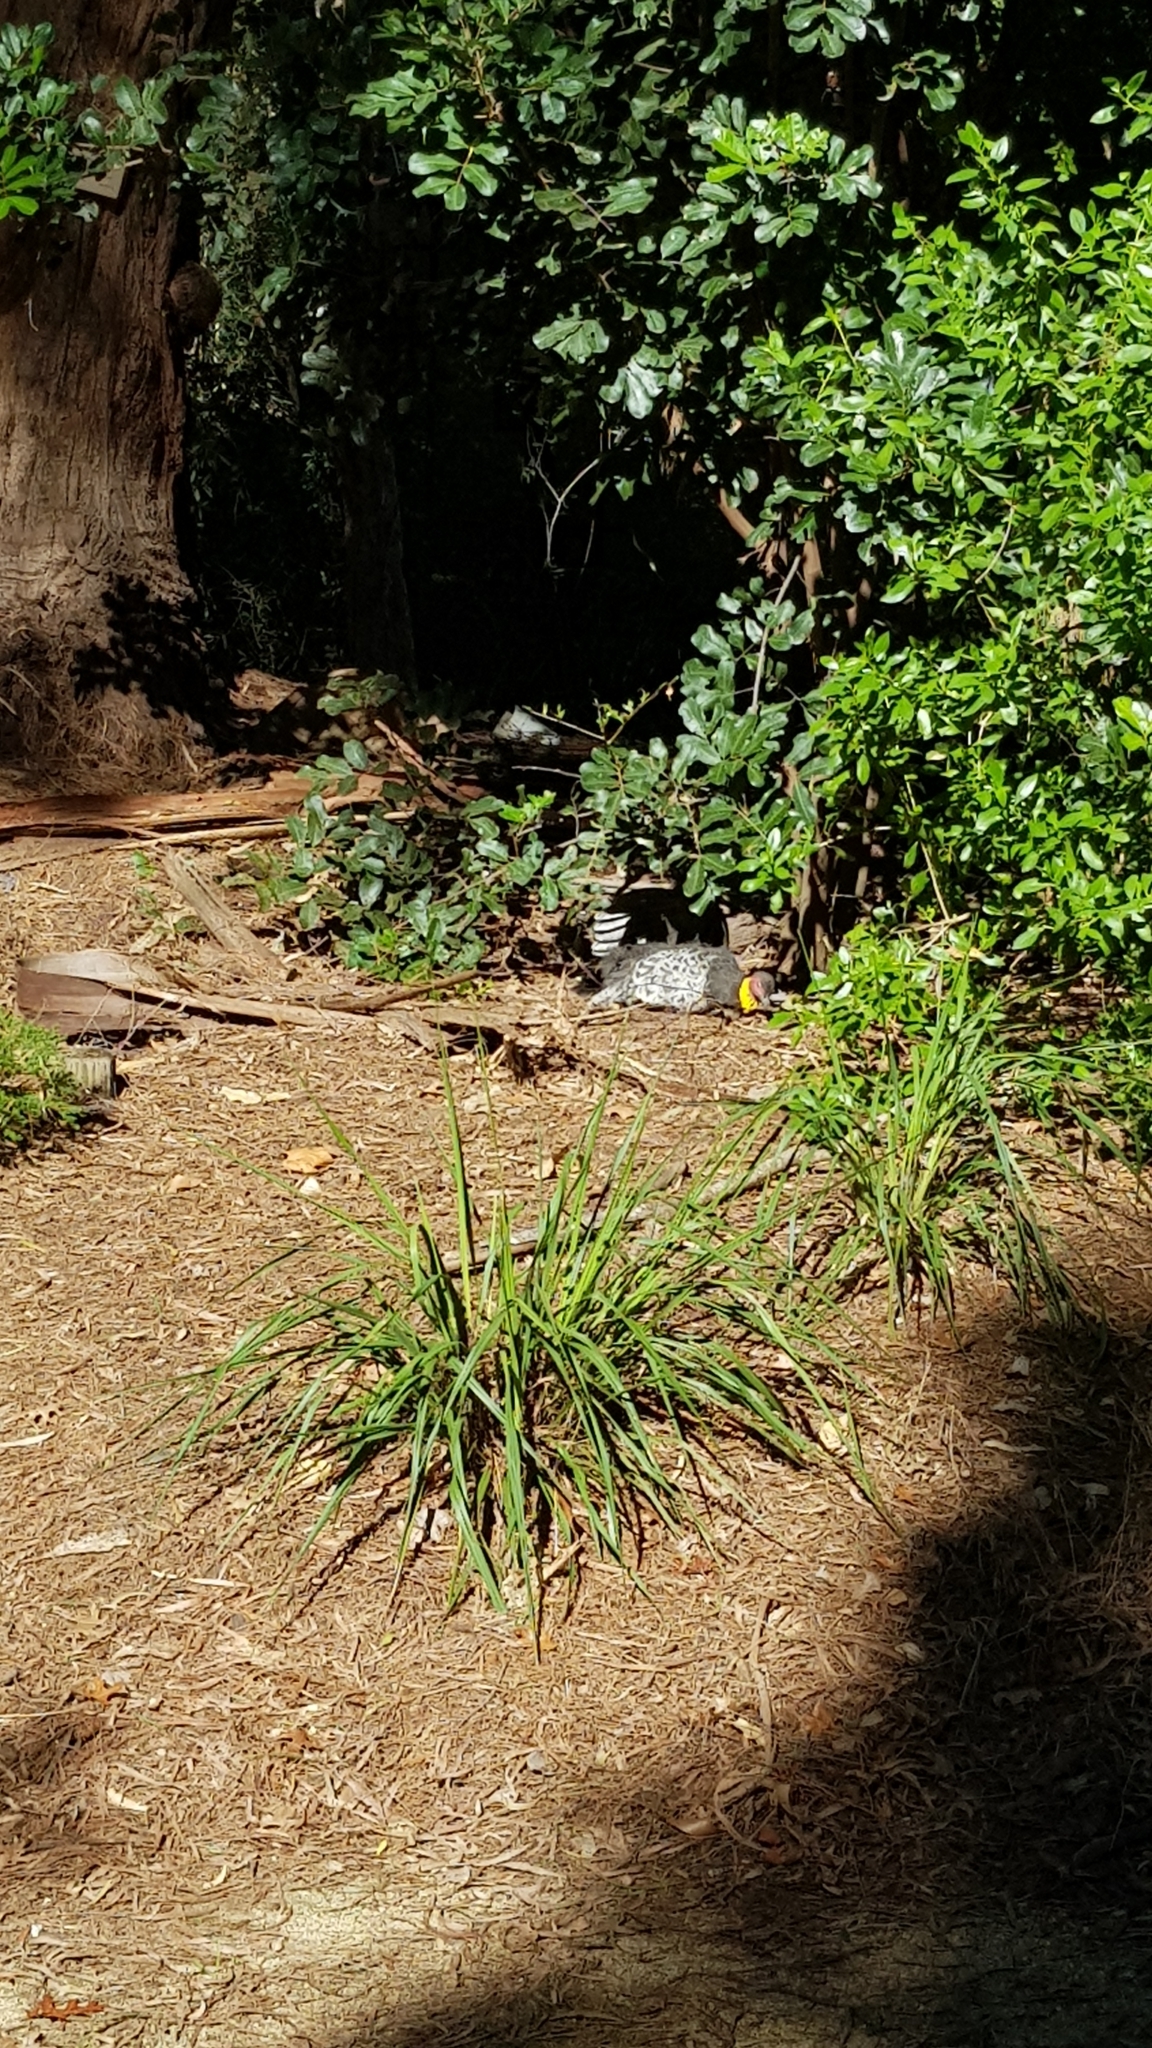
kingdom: Animalia
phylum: Chordata
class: Aves
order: Galliformes
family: Megapodiidae
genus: Alectura
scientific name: Alectura lathami
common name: Australian brushturkey
